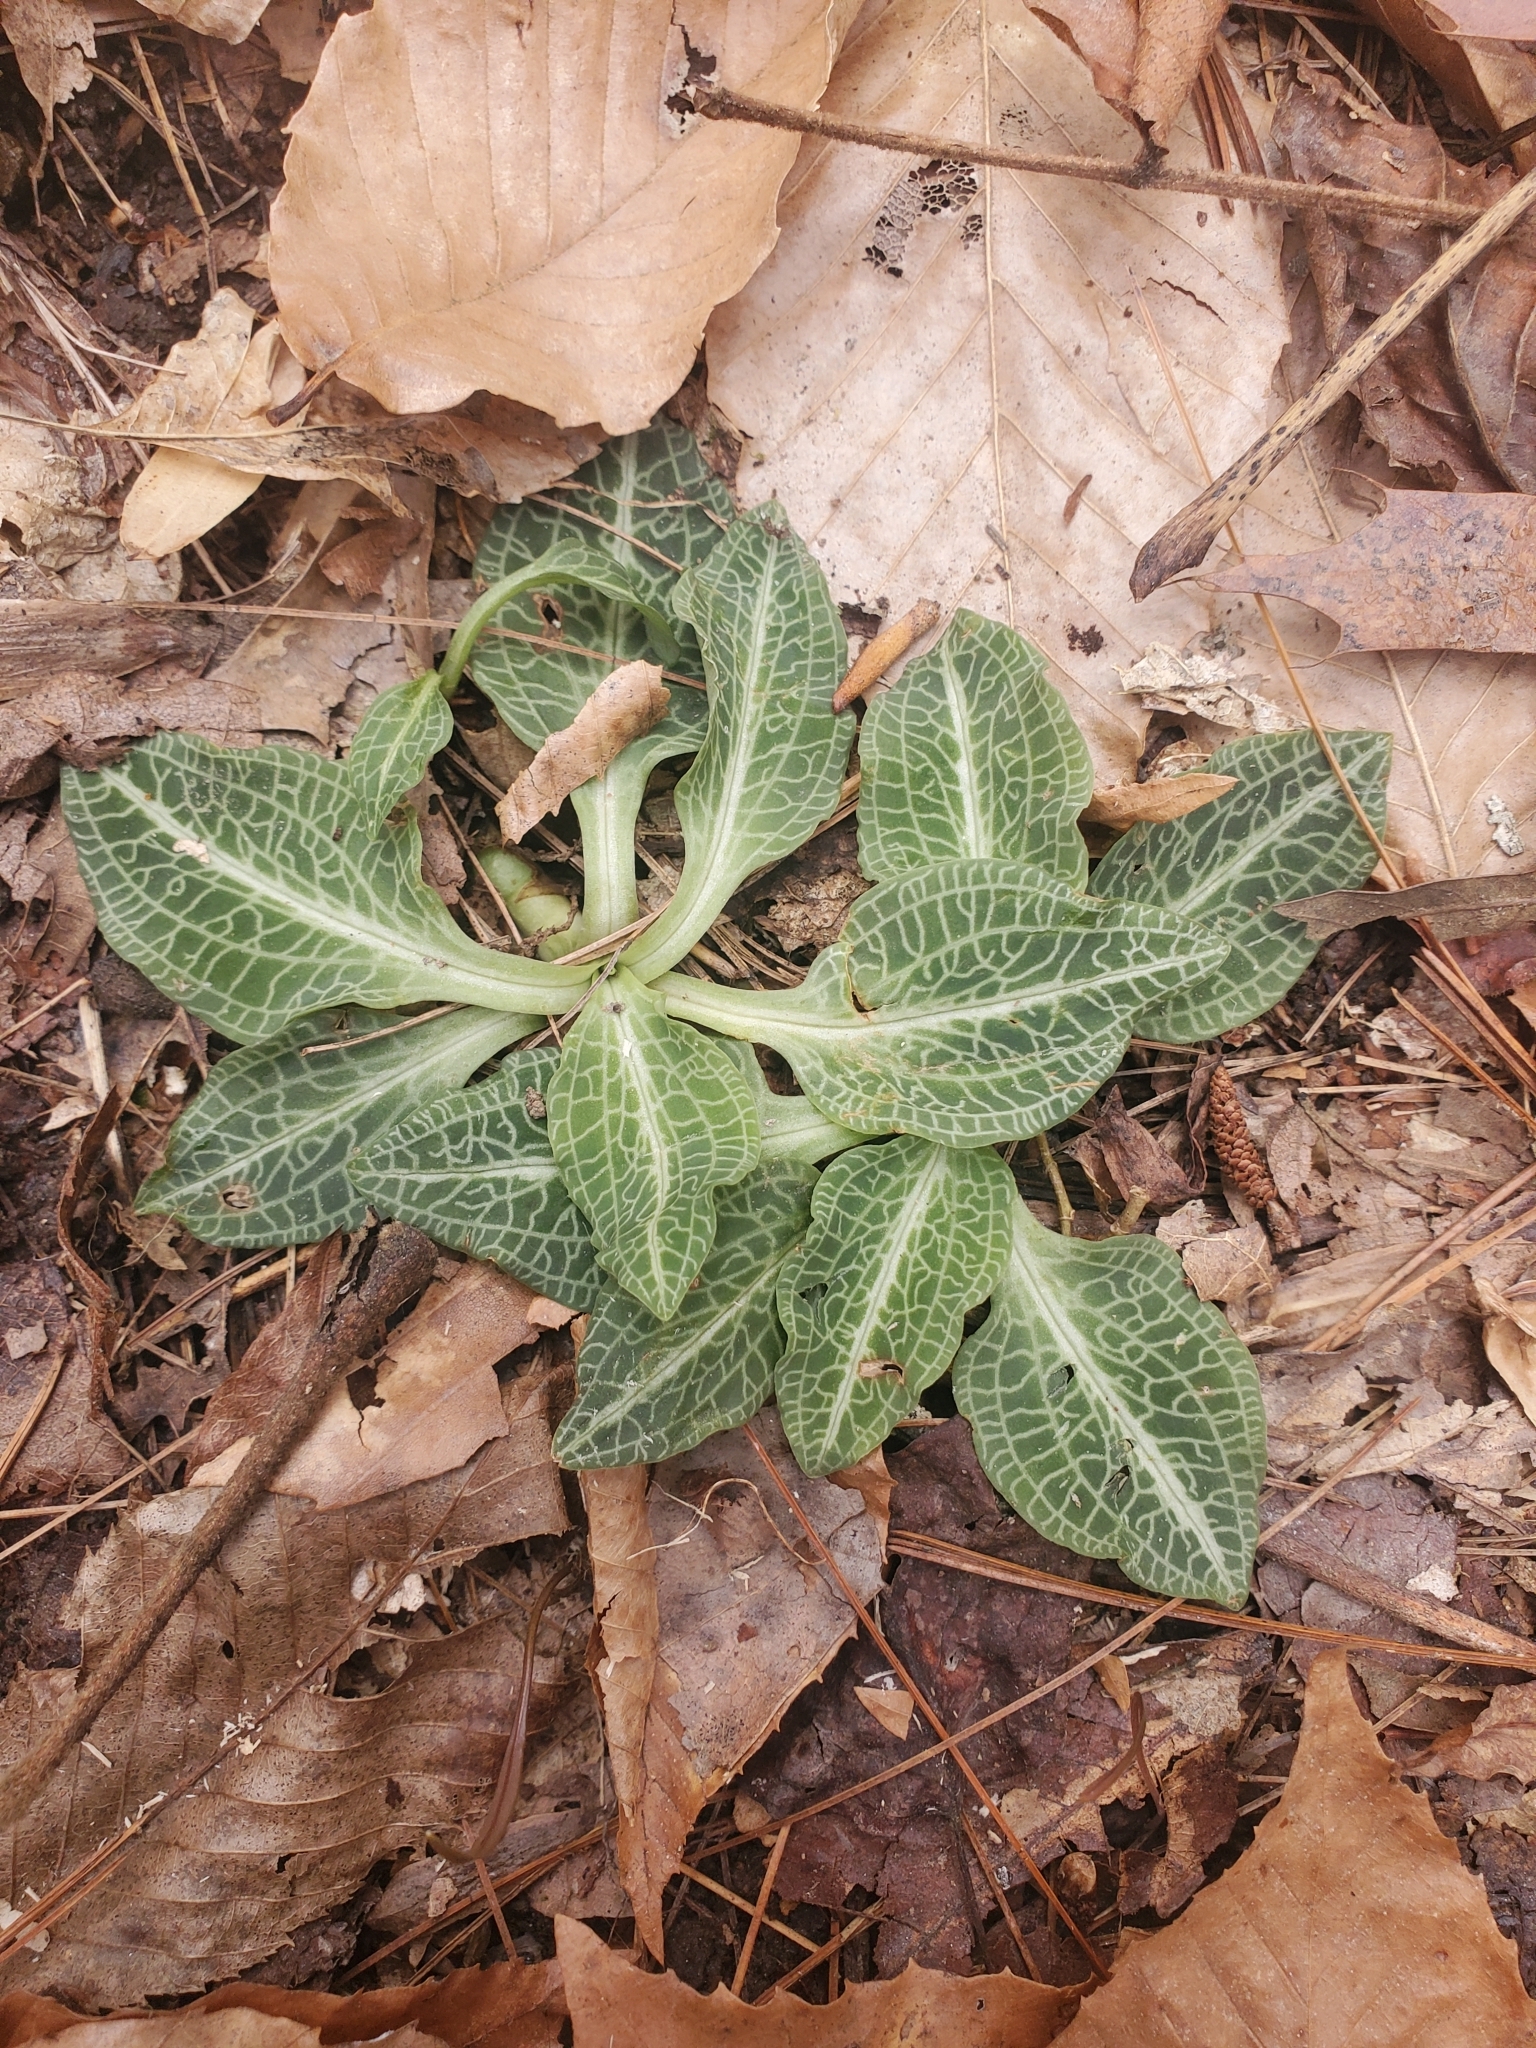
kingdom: Plantae
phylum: Tracheophyta
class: Liliopsida
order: Asparagales
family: Orchidaceae
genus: Goodyera
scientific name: Goodyera pubescens
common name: Downy rattlesnake-plantain
